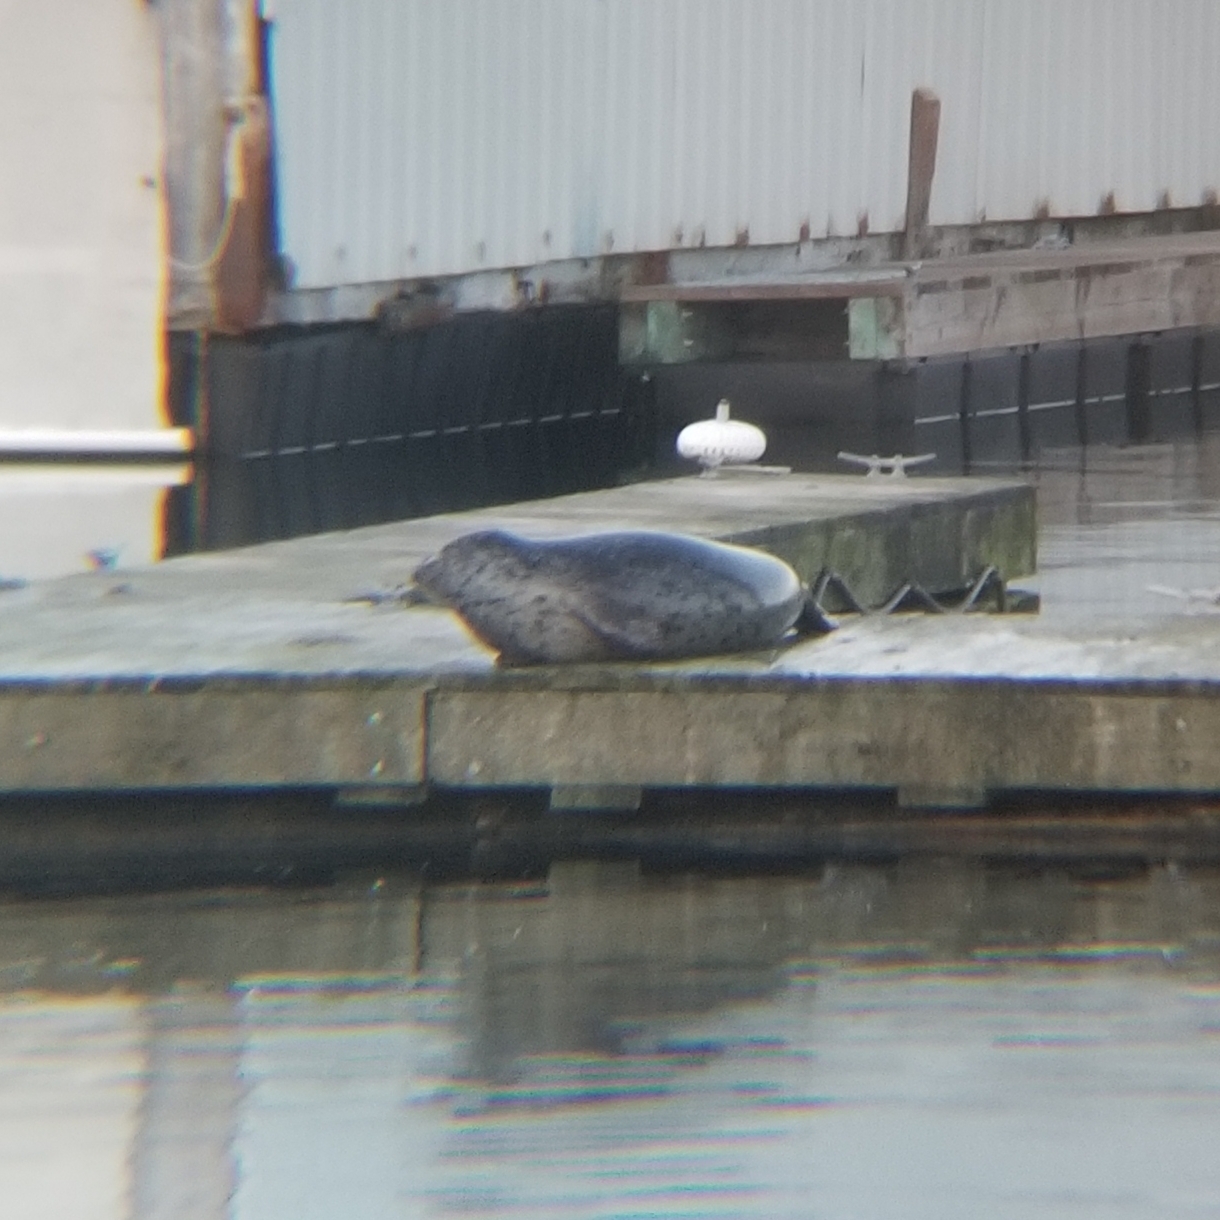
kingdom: Animalia
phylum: Chordata
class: Mammalia
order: Carnivora
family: Phocidae
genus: Phoca
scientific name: Phoca vitulina
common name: Harbor seal
